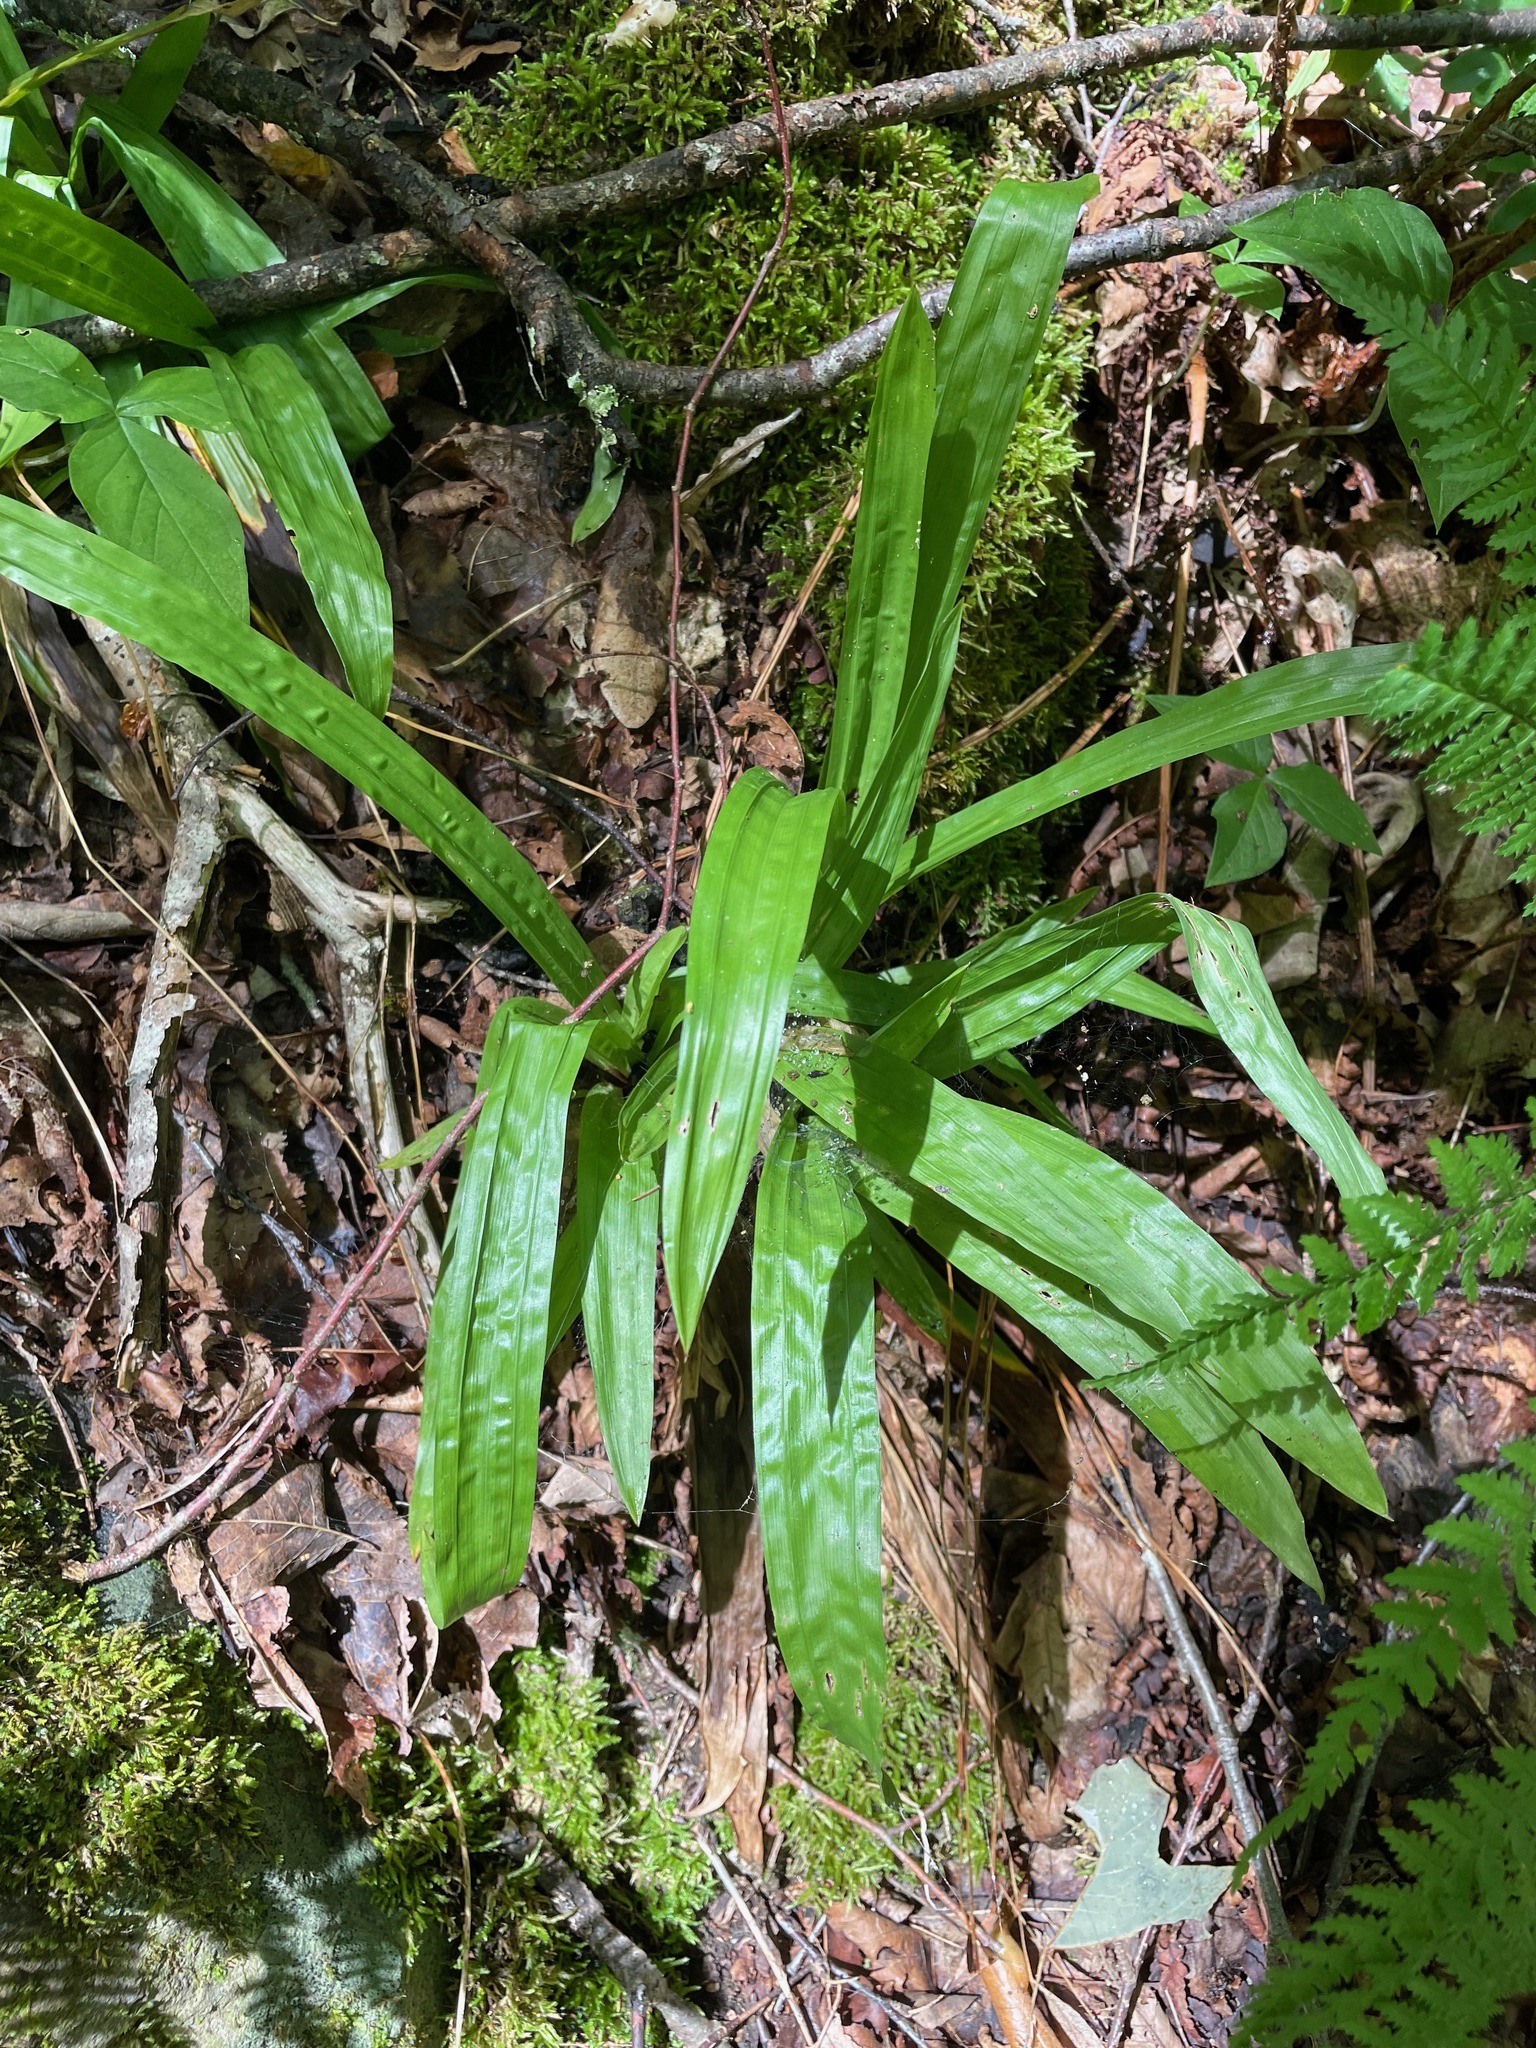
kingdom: Plantae
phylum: Tracheophyta
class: Liliopsida
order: Poales
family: Cyperaceae
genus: Carex
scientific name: Carex plantaginea
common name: Plantain-leaved sedge
